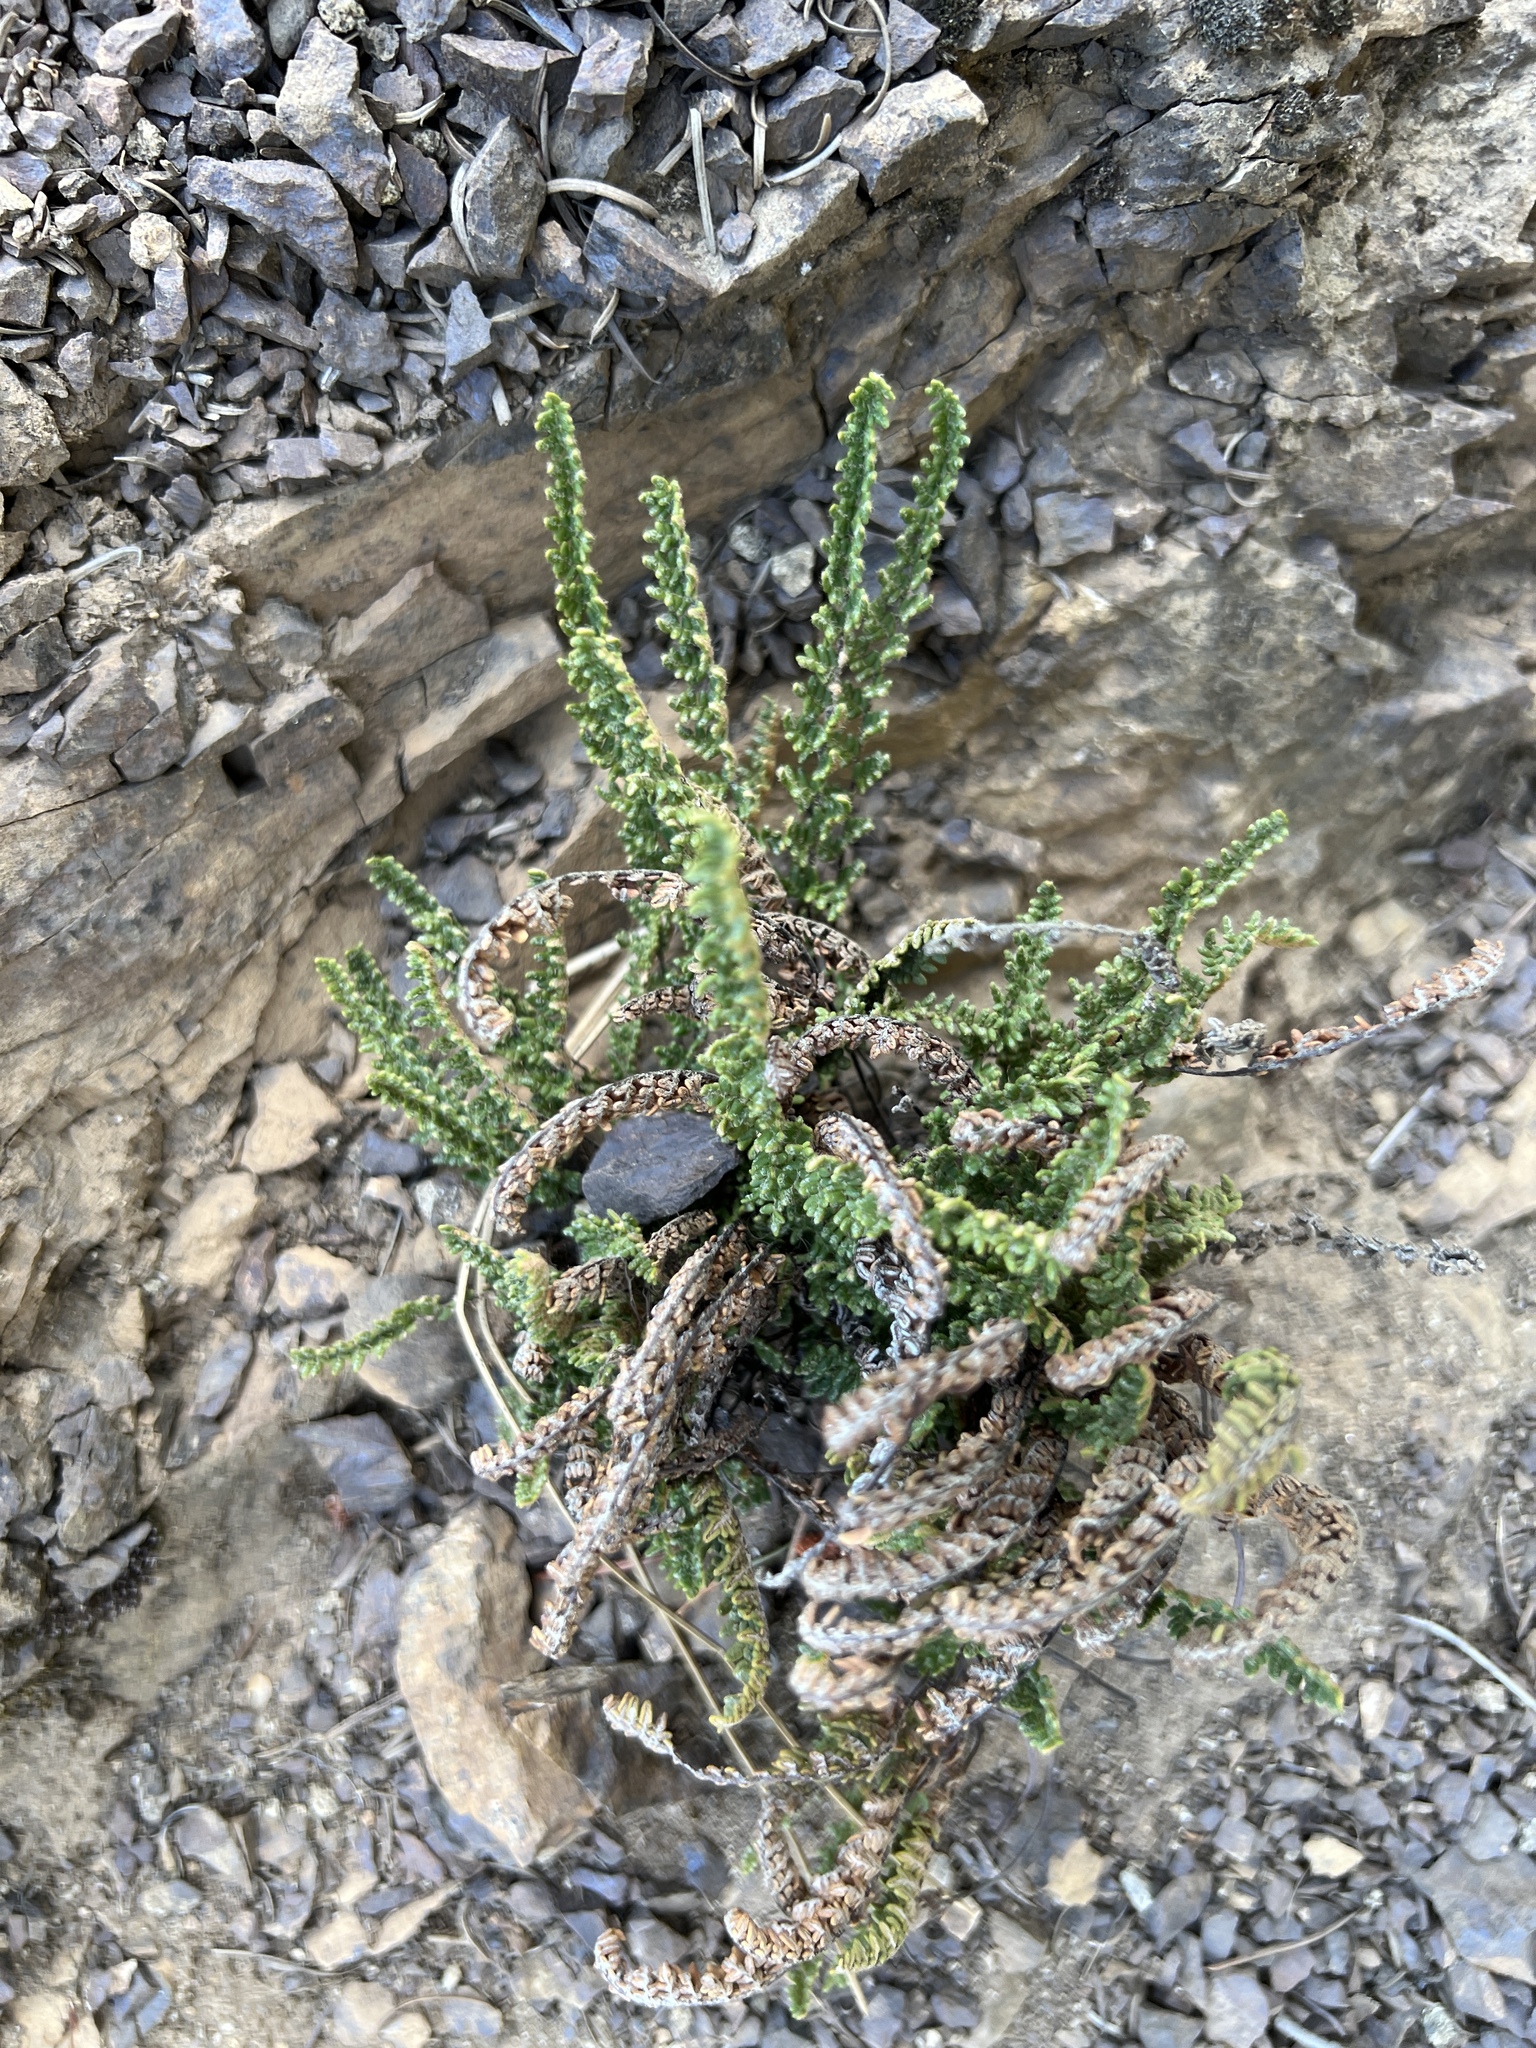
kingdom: Plantae
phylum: Tracheophyta
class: Polypodiopsida
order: Polypodiales
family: Pteridaceae
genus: Myriopteris
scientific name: Myriopteris gracillima
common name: Lace fern
